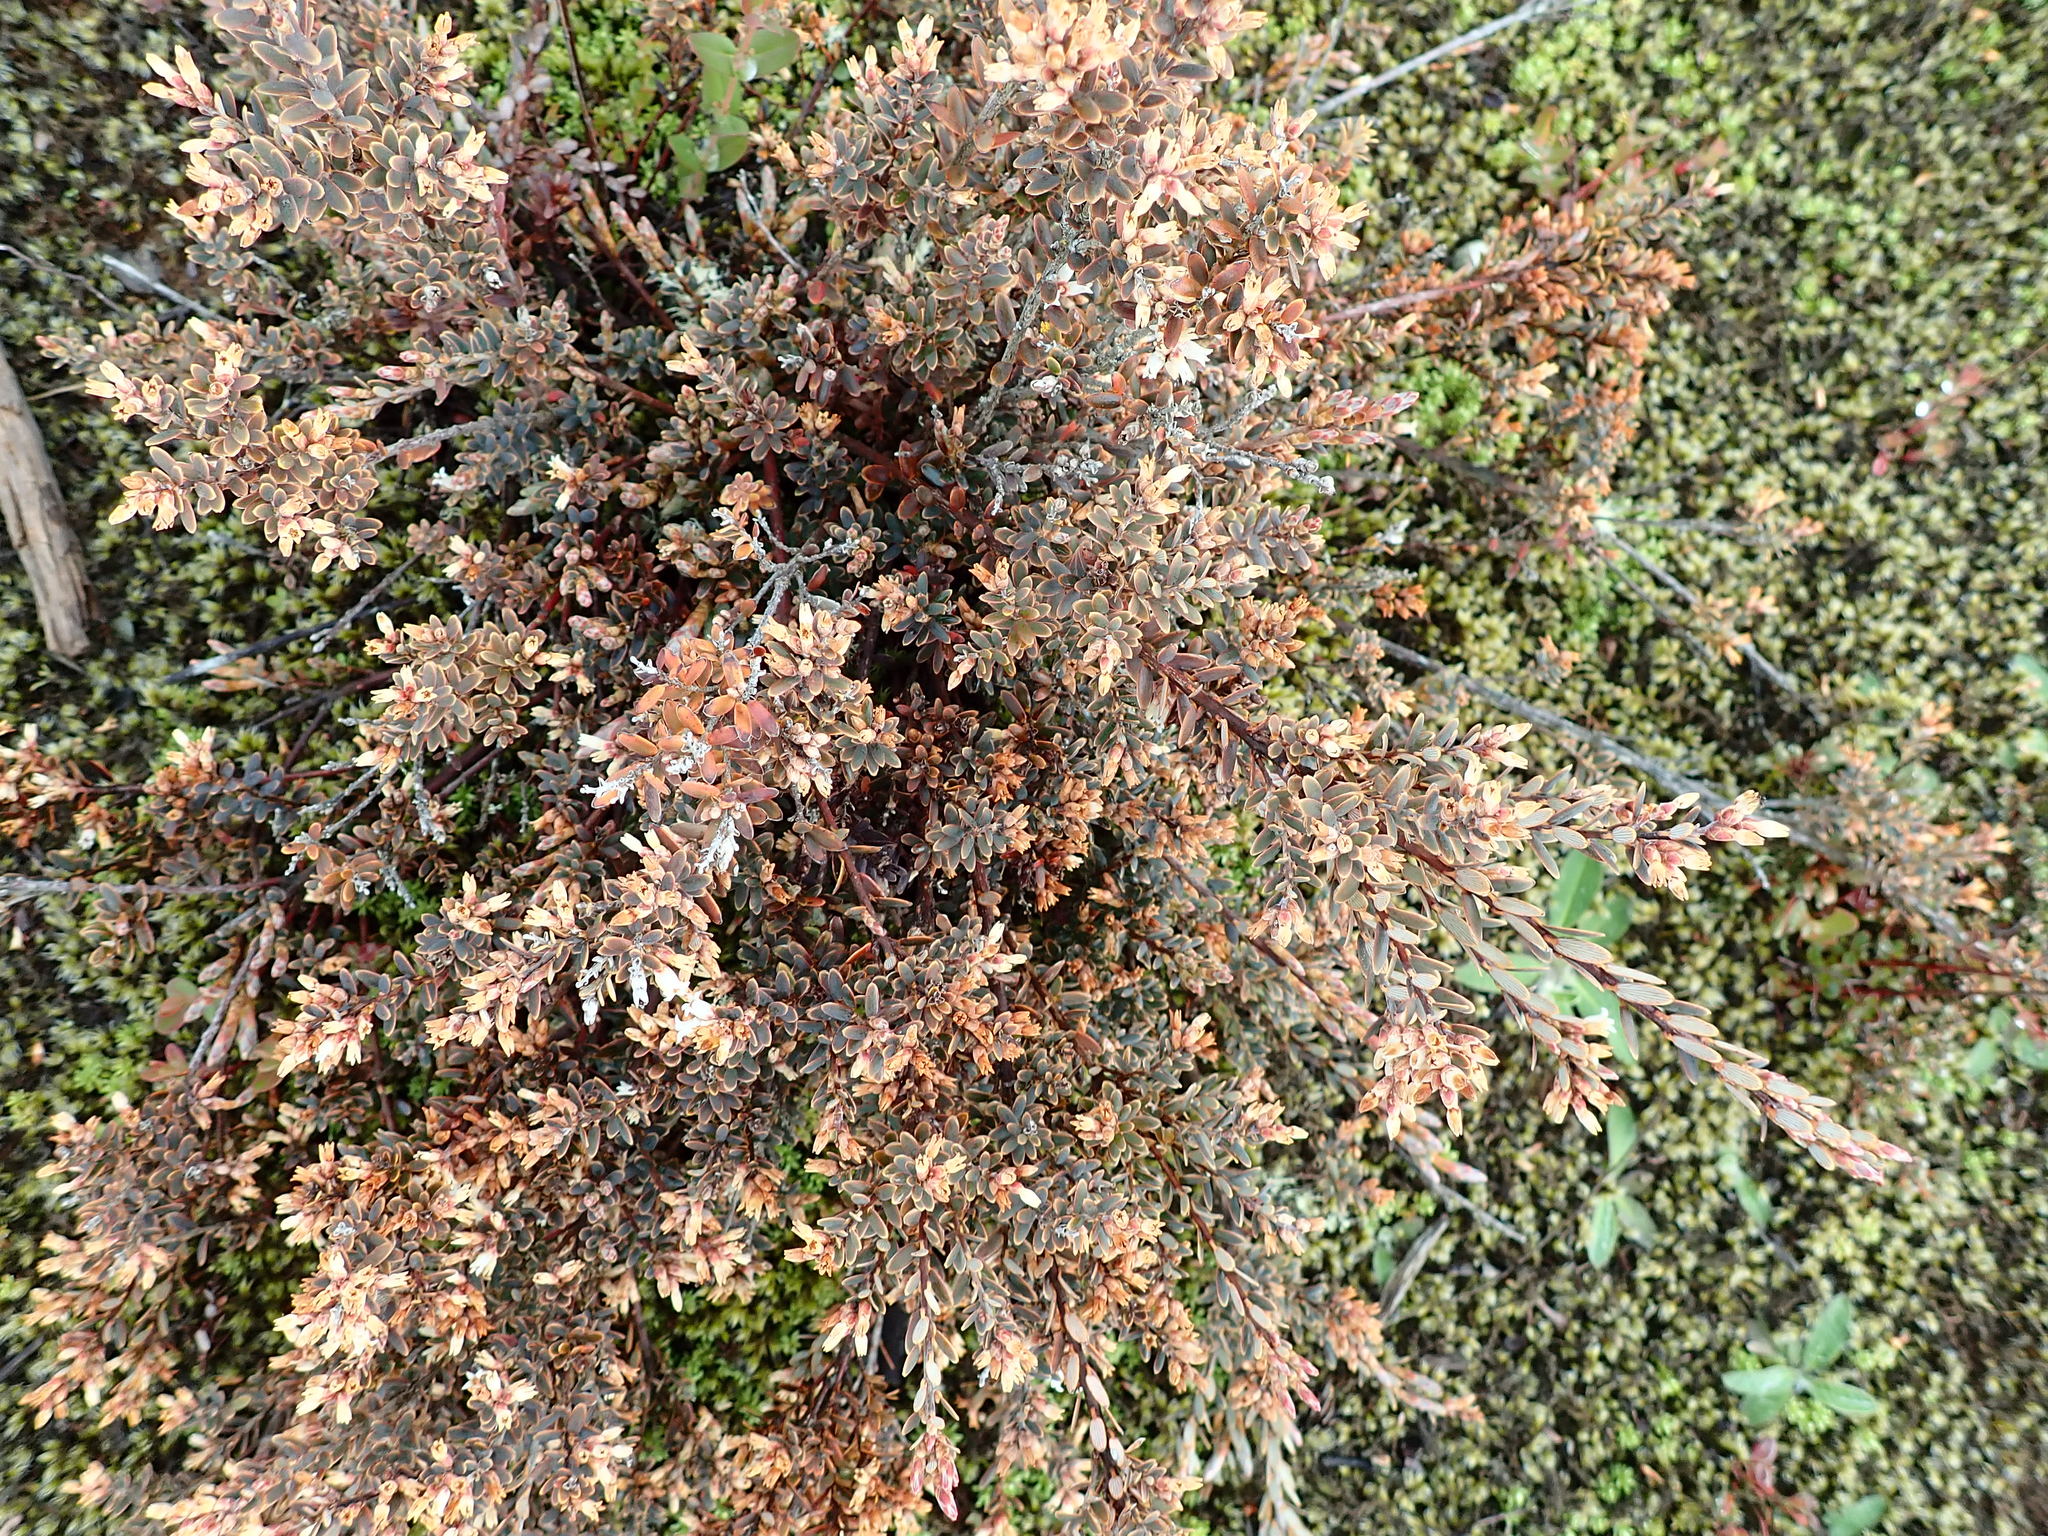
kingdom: Plantae
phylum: Tracheophyta
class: Magnoliopsida
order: Ericales
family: Ericaceae
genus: Androstoma
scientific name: Androstoma empetrifolia
